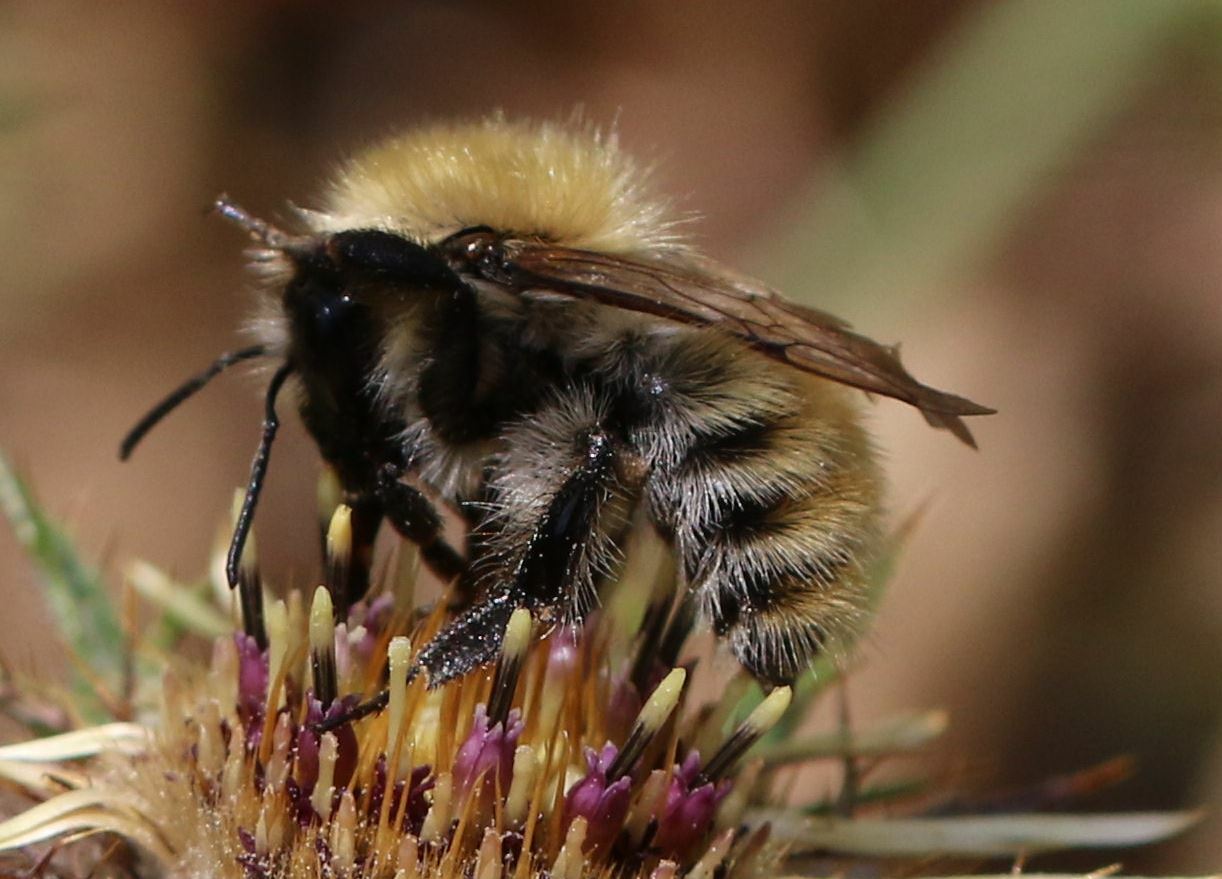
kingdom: Animalia
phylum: Arthropoda
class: Insecta
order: Hymenoptera
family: Apidae
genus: Bombus
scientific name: Bombus pascuorum
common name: Common carder bee
